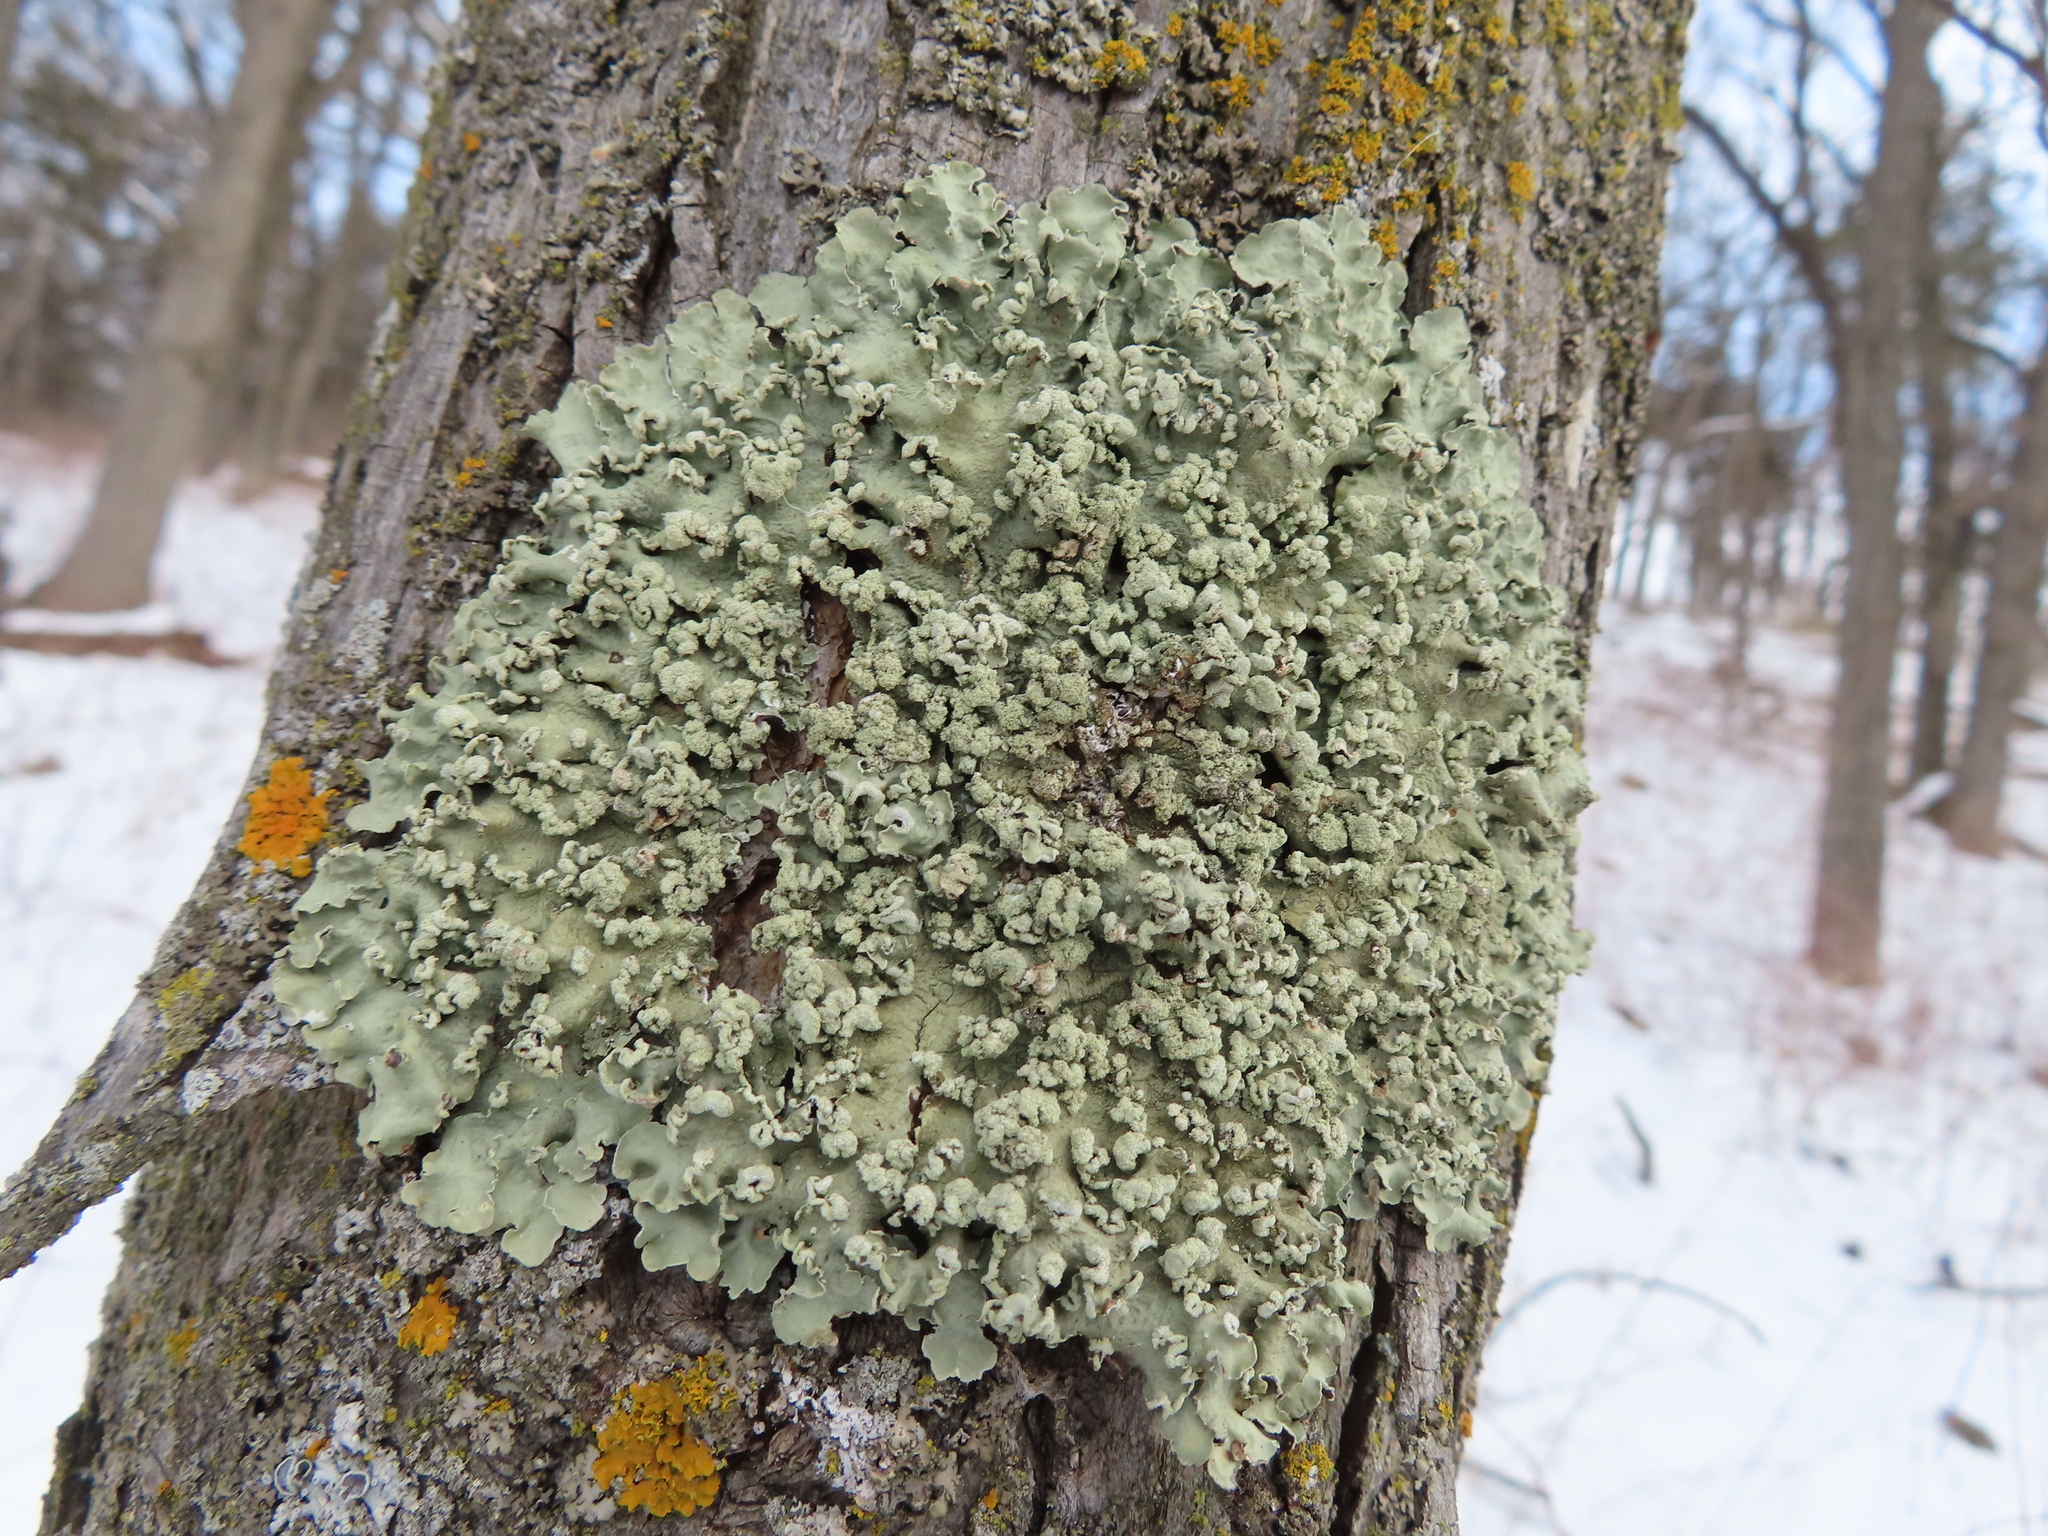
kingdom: Fungi
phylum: Ascomycota
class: Lecanoromycetes
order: Lecanorales
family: Parmeliaceae
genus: Flavopunctelia
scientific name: Flavopunctelia soredica
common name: Powder-edged speckled greenshield
